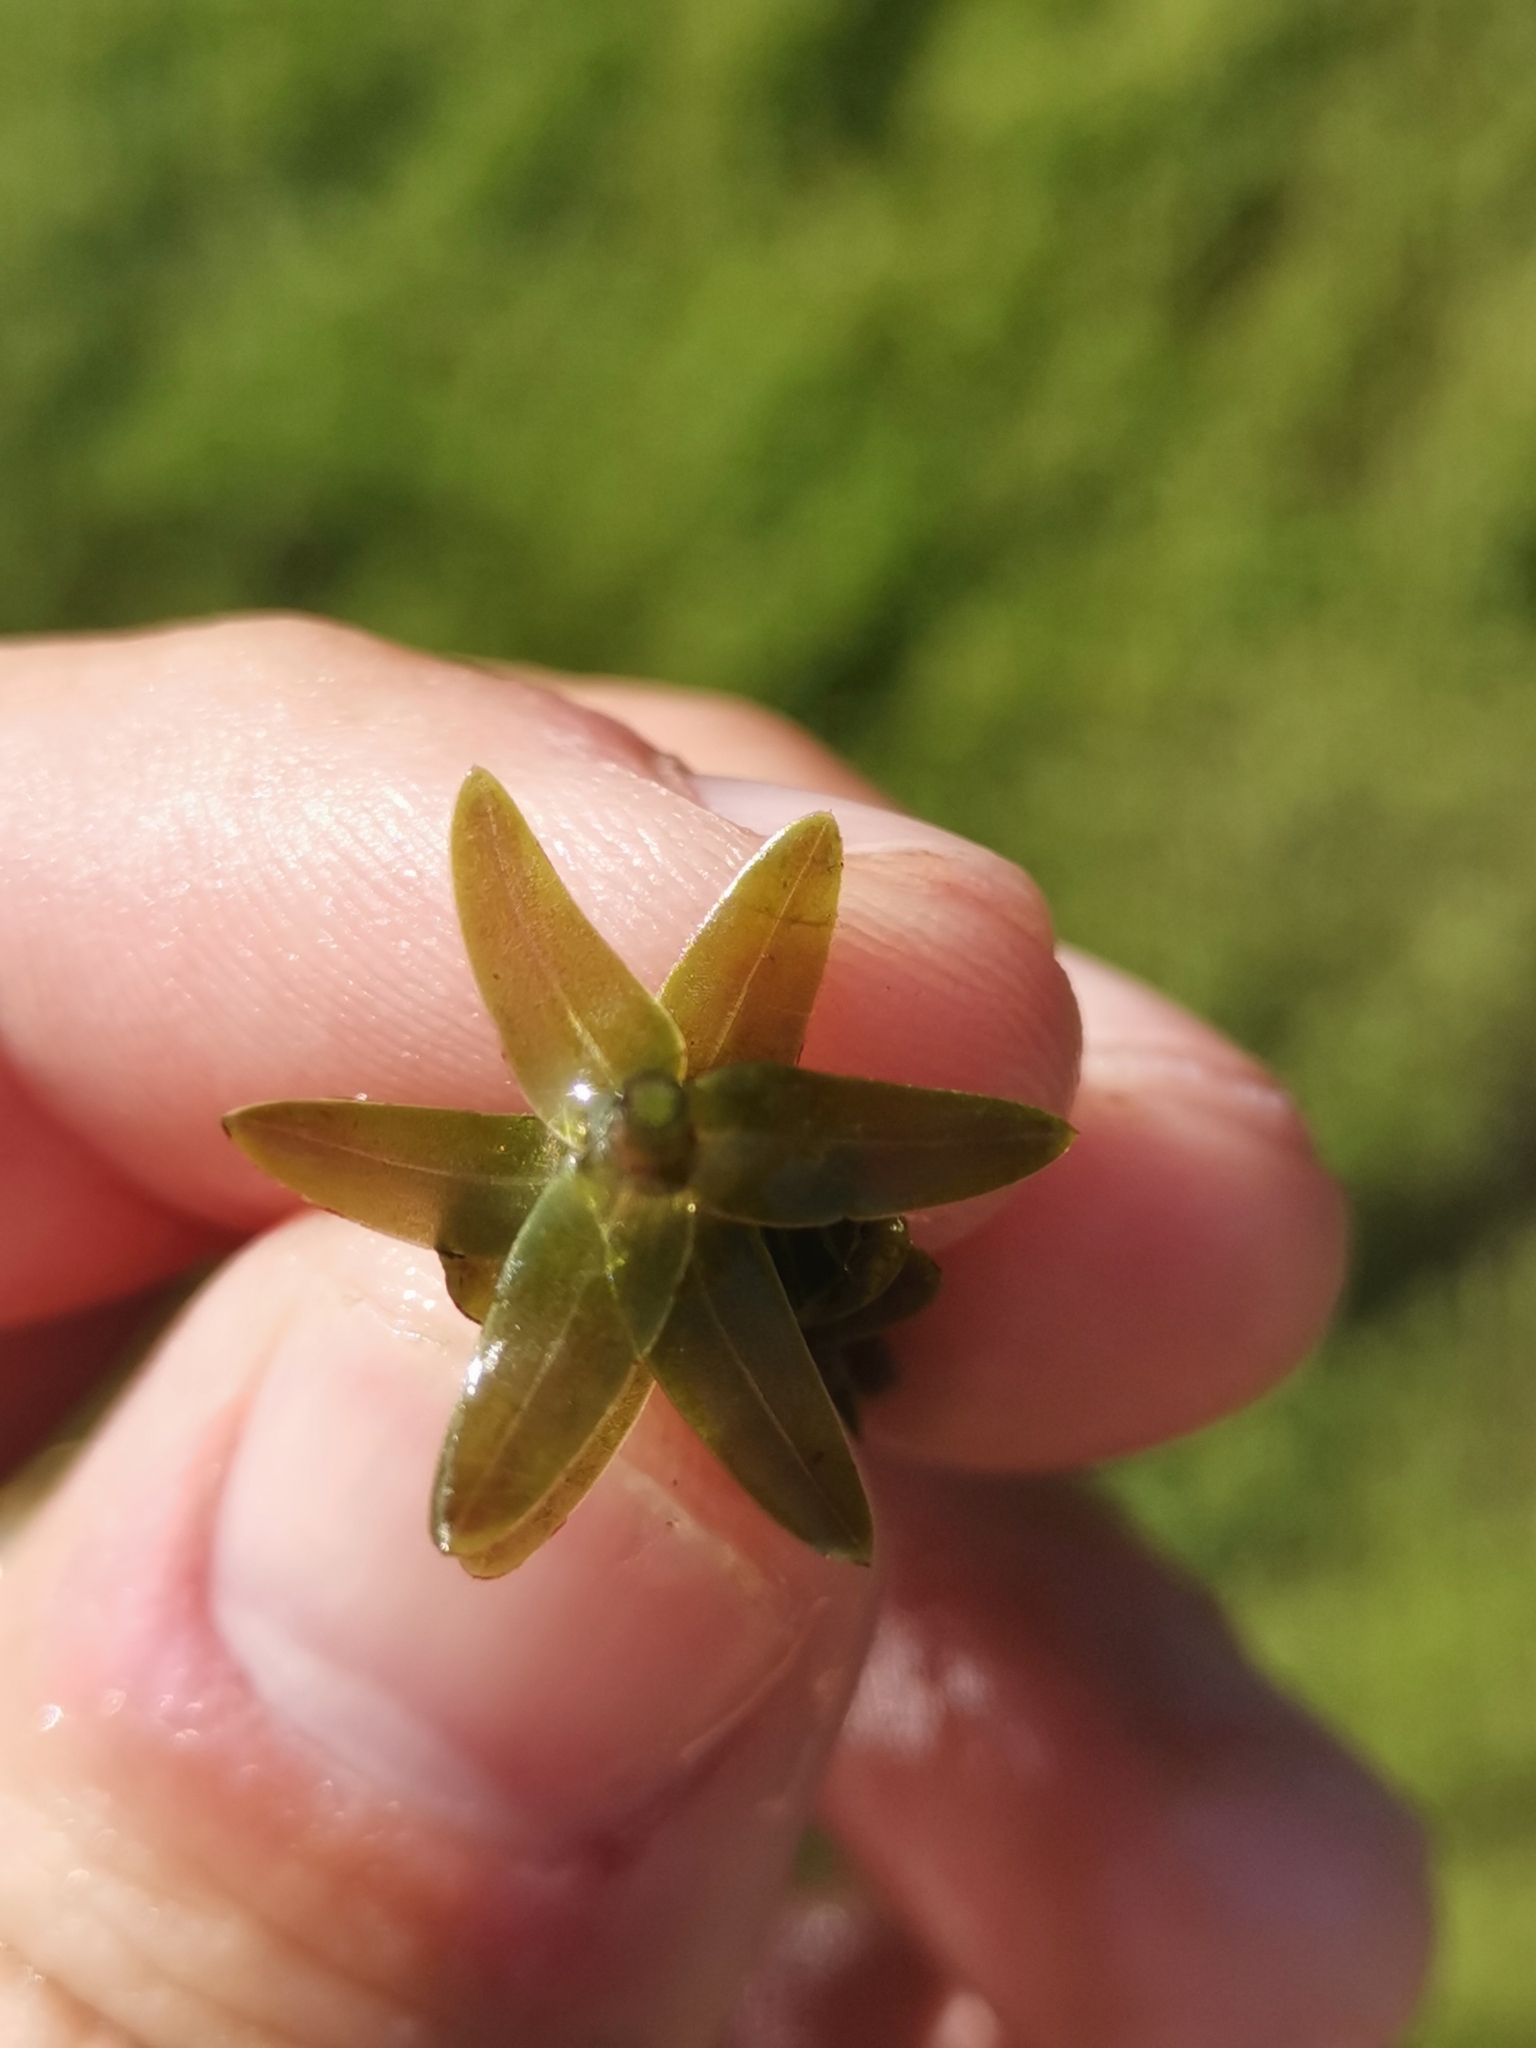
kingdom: Plantae
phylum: Tracheophyta
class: Liliopsida
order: Alismatales
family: Hydrocharitaceae
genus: Elodea
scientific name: Elodea canadensis
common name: Canadian waterweed
